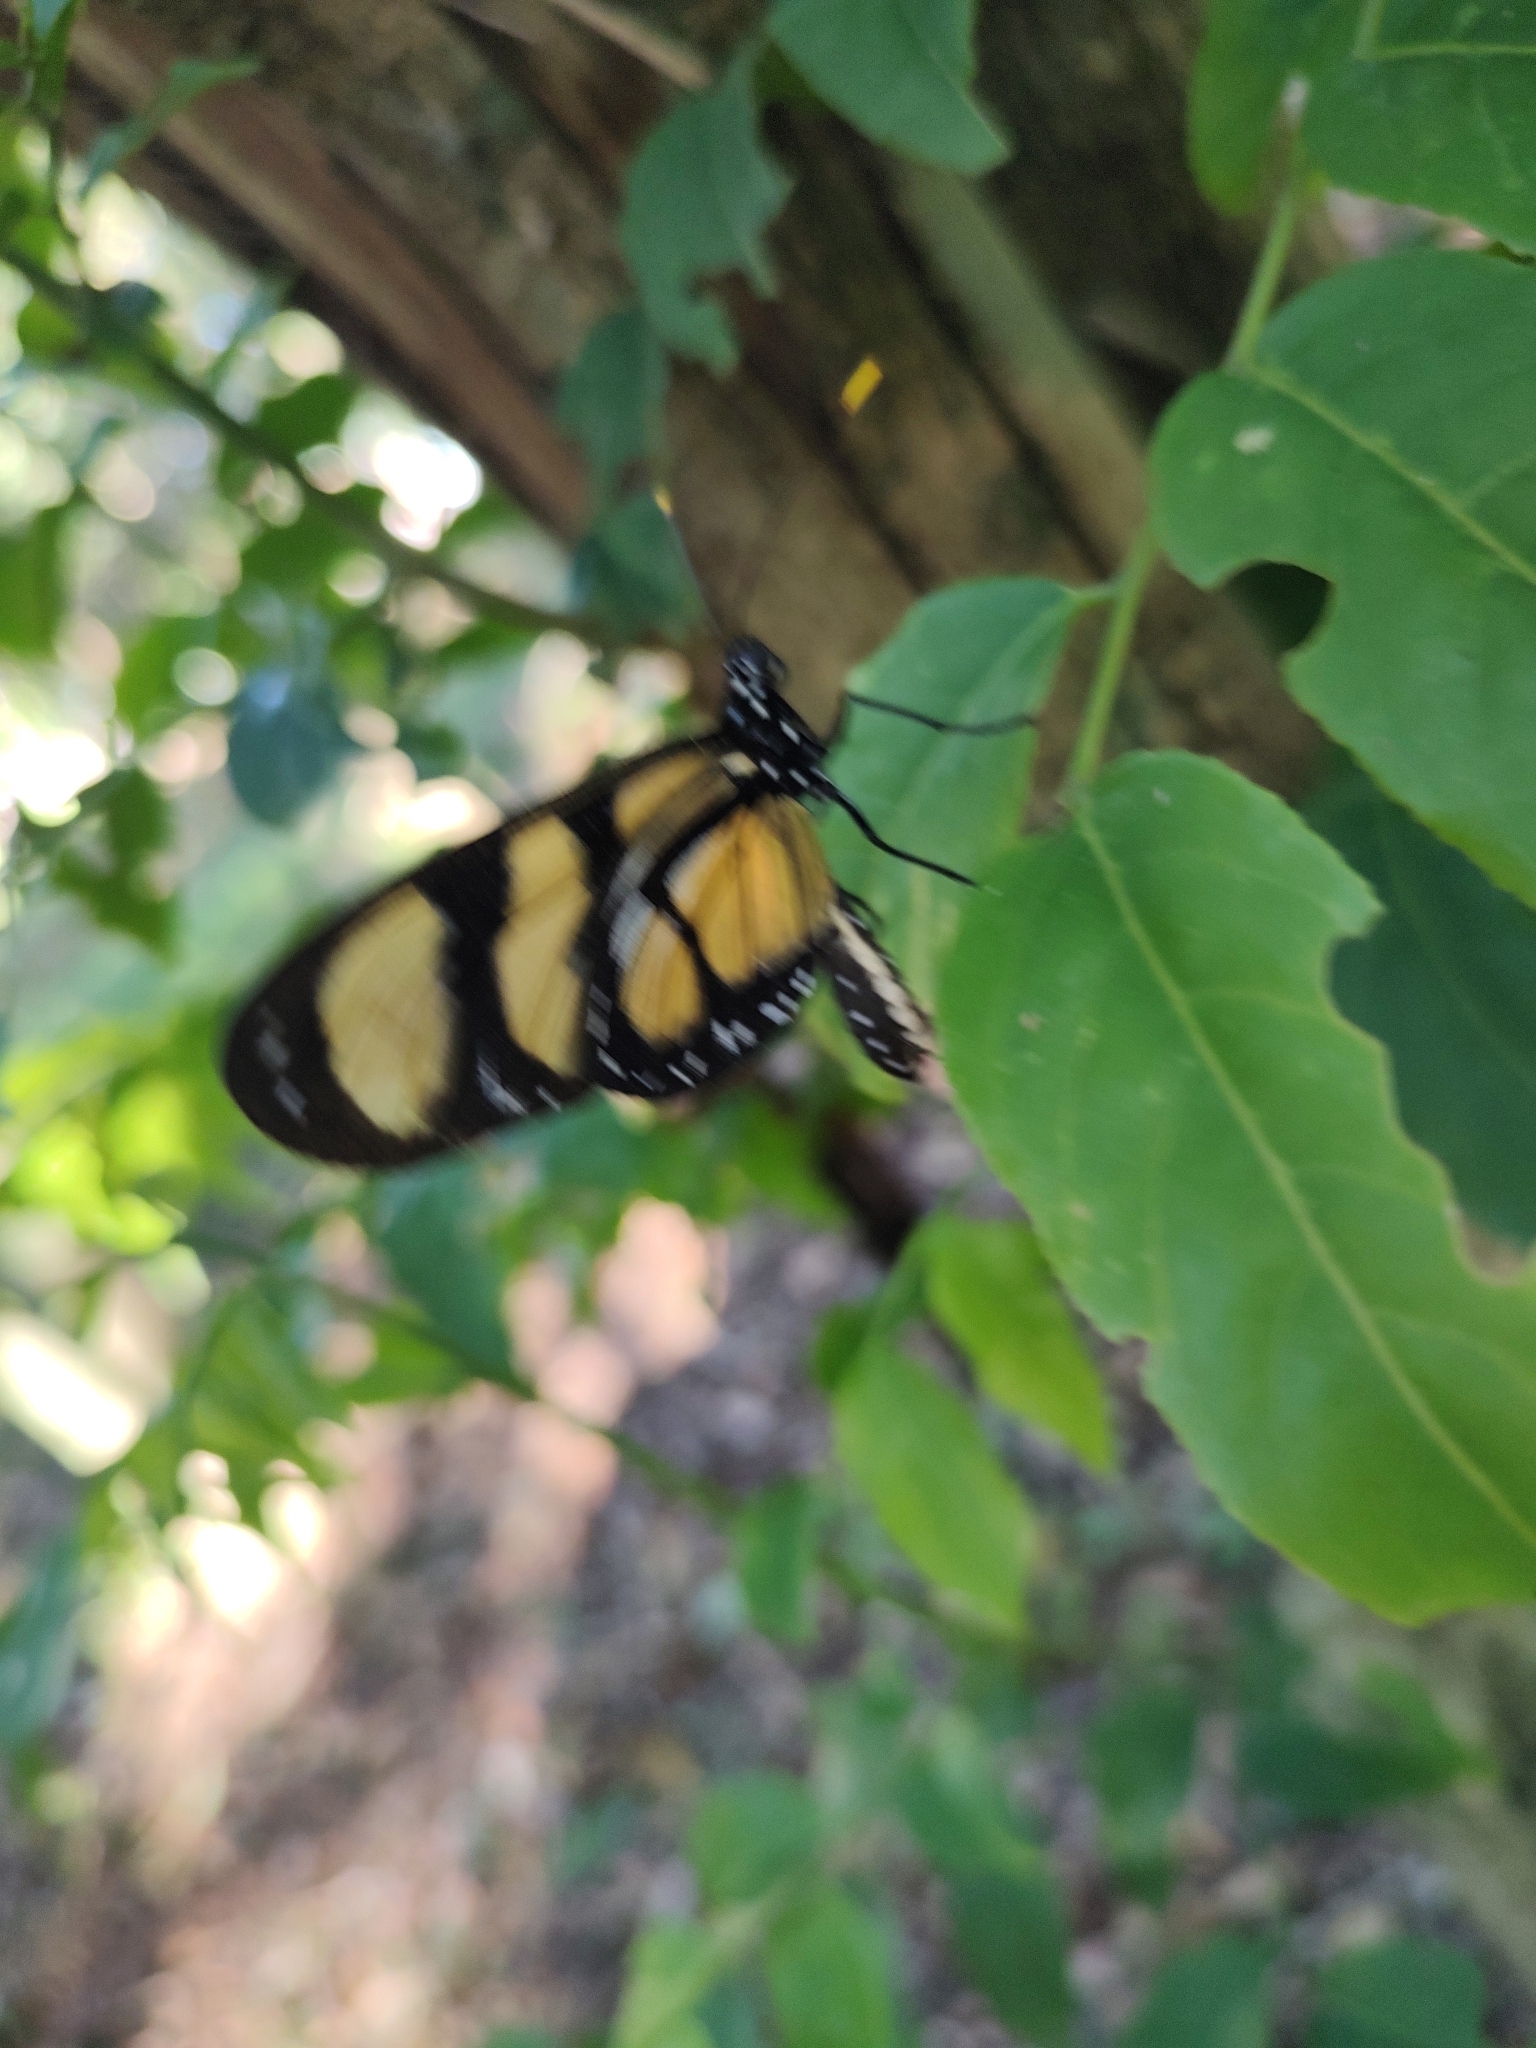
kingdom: Animalia
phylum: Arthropoda
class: Insecta
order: Lepidoptera
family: Nymphalidae
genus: Methona
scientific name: Methona themisto
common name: Themisto amberwing
